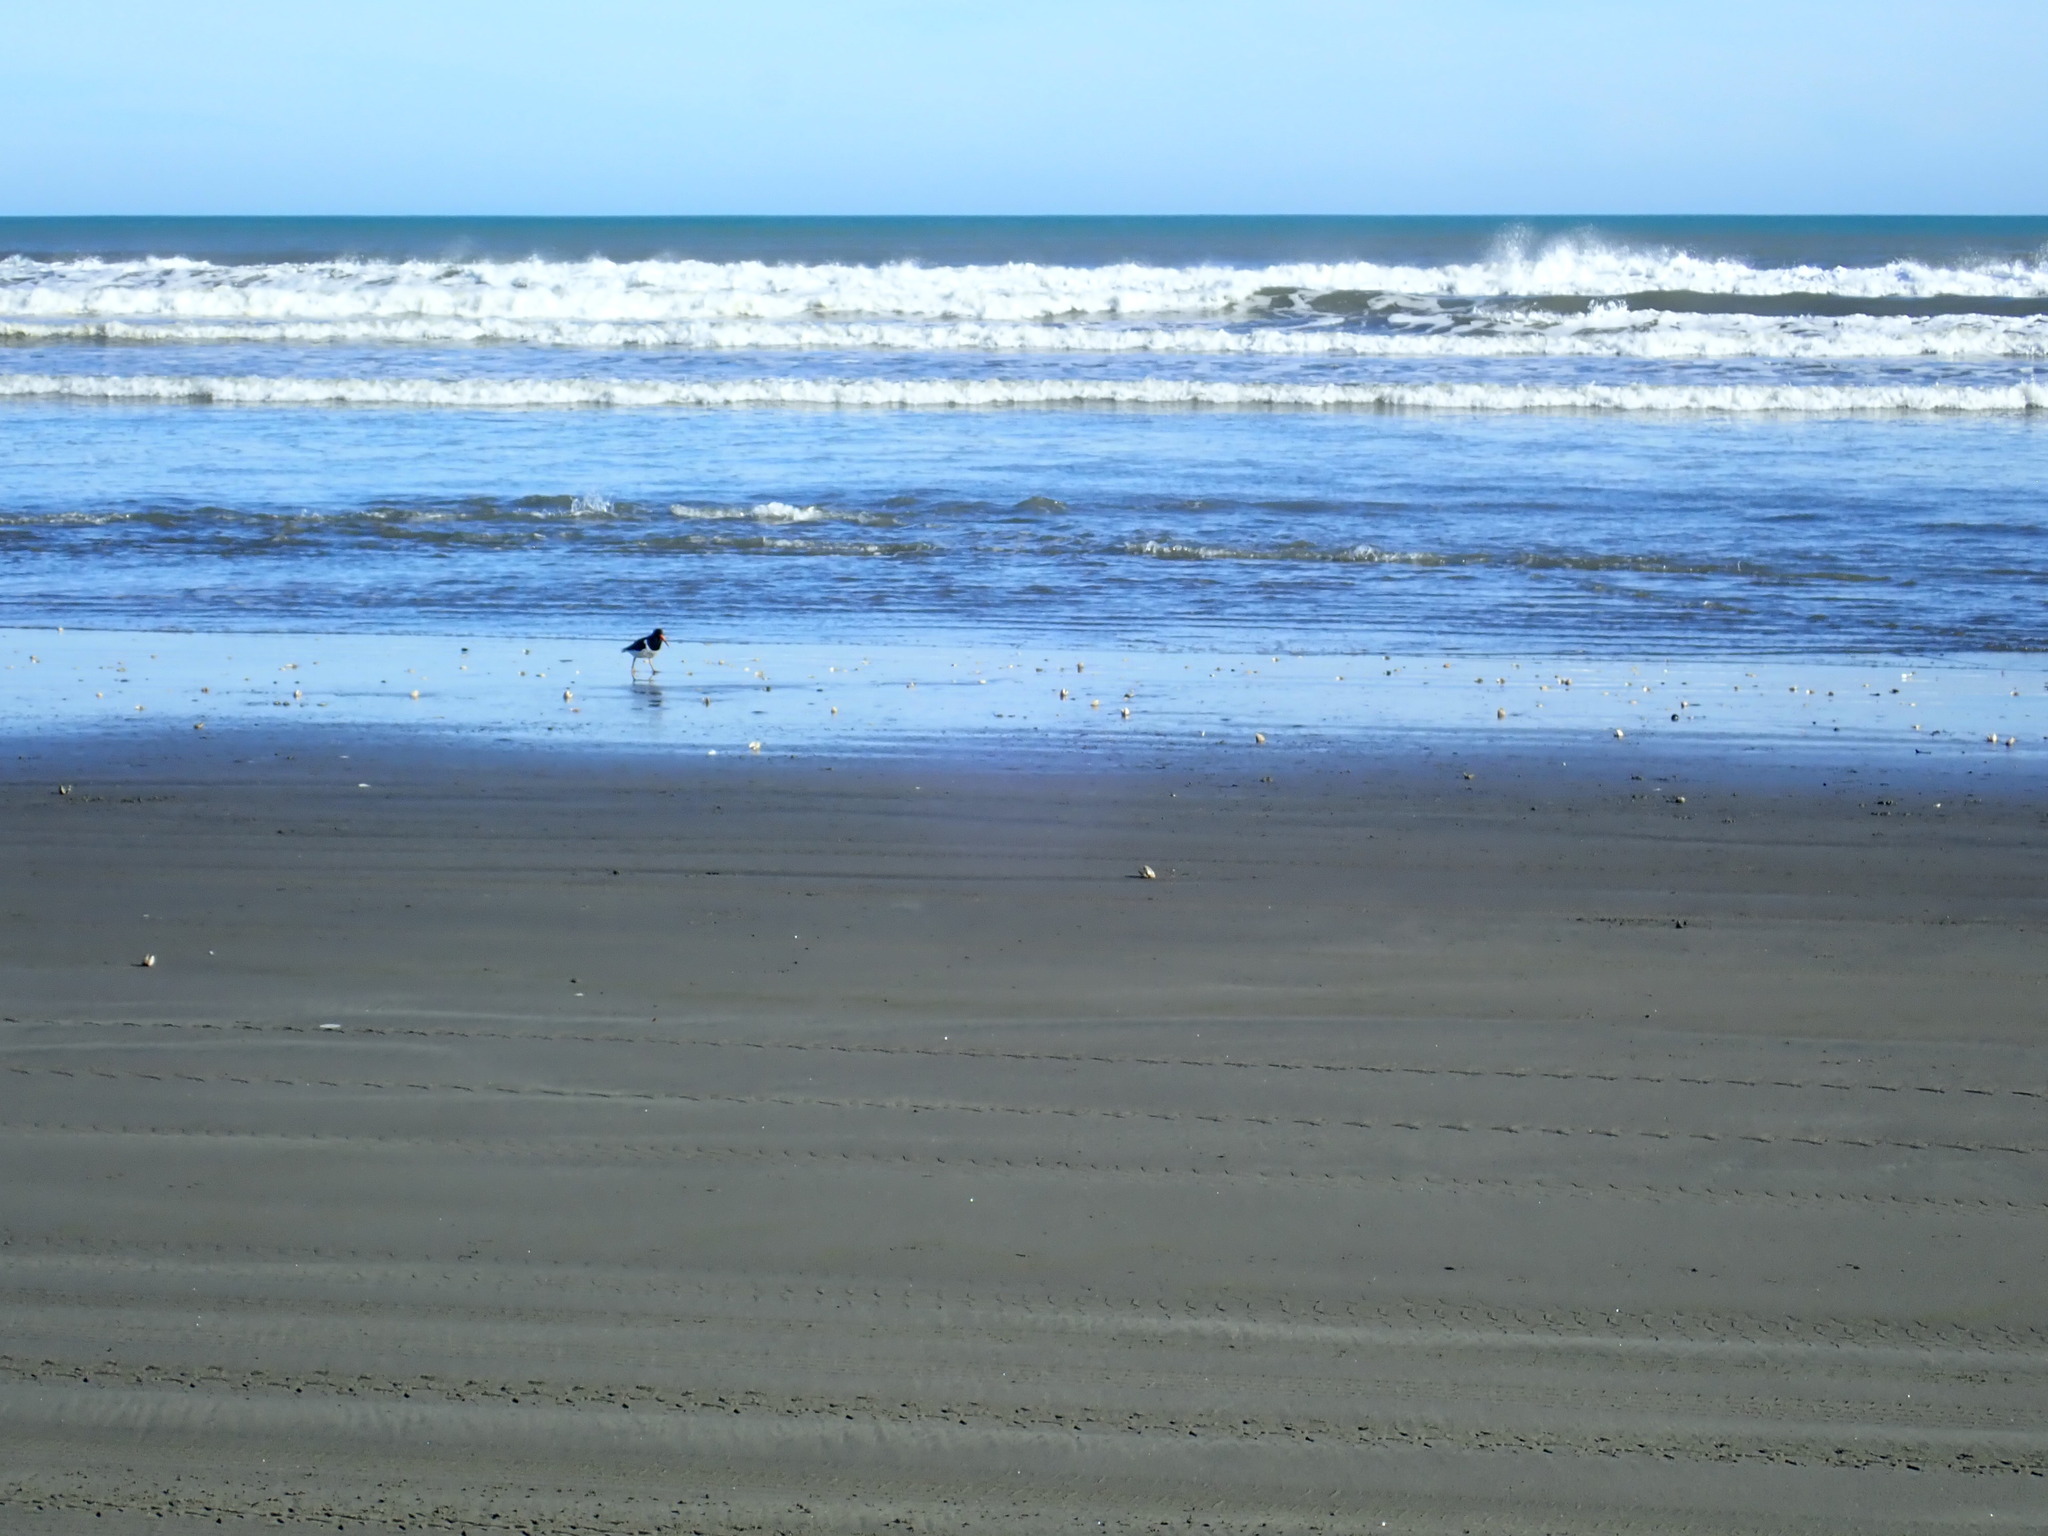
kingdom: Animalia
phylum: Chordata
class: Aves
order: Charadriiformes
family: Haematopodidae
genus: Haematopus
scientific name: Haematopus finschi
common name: South island oystercatcher
